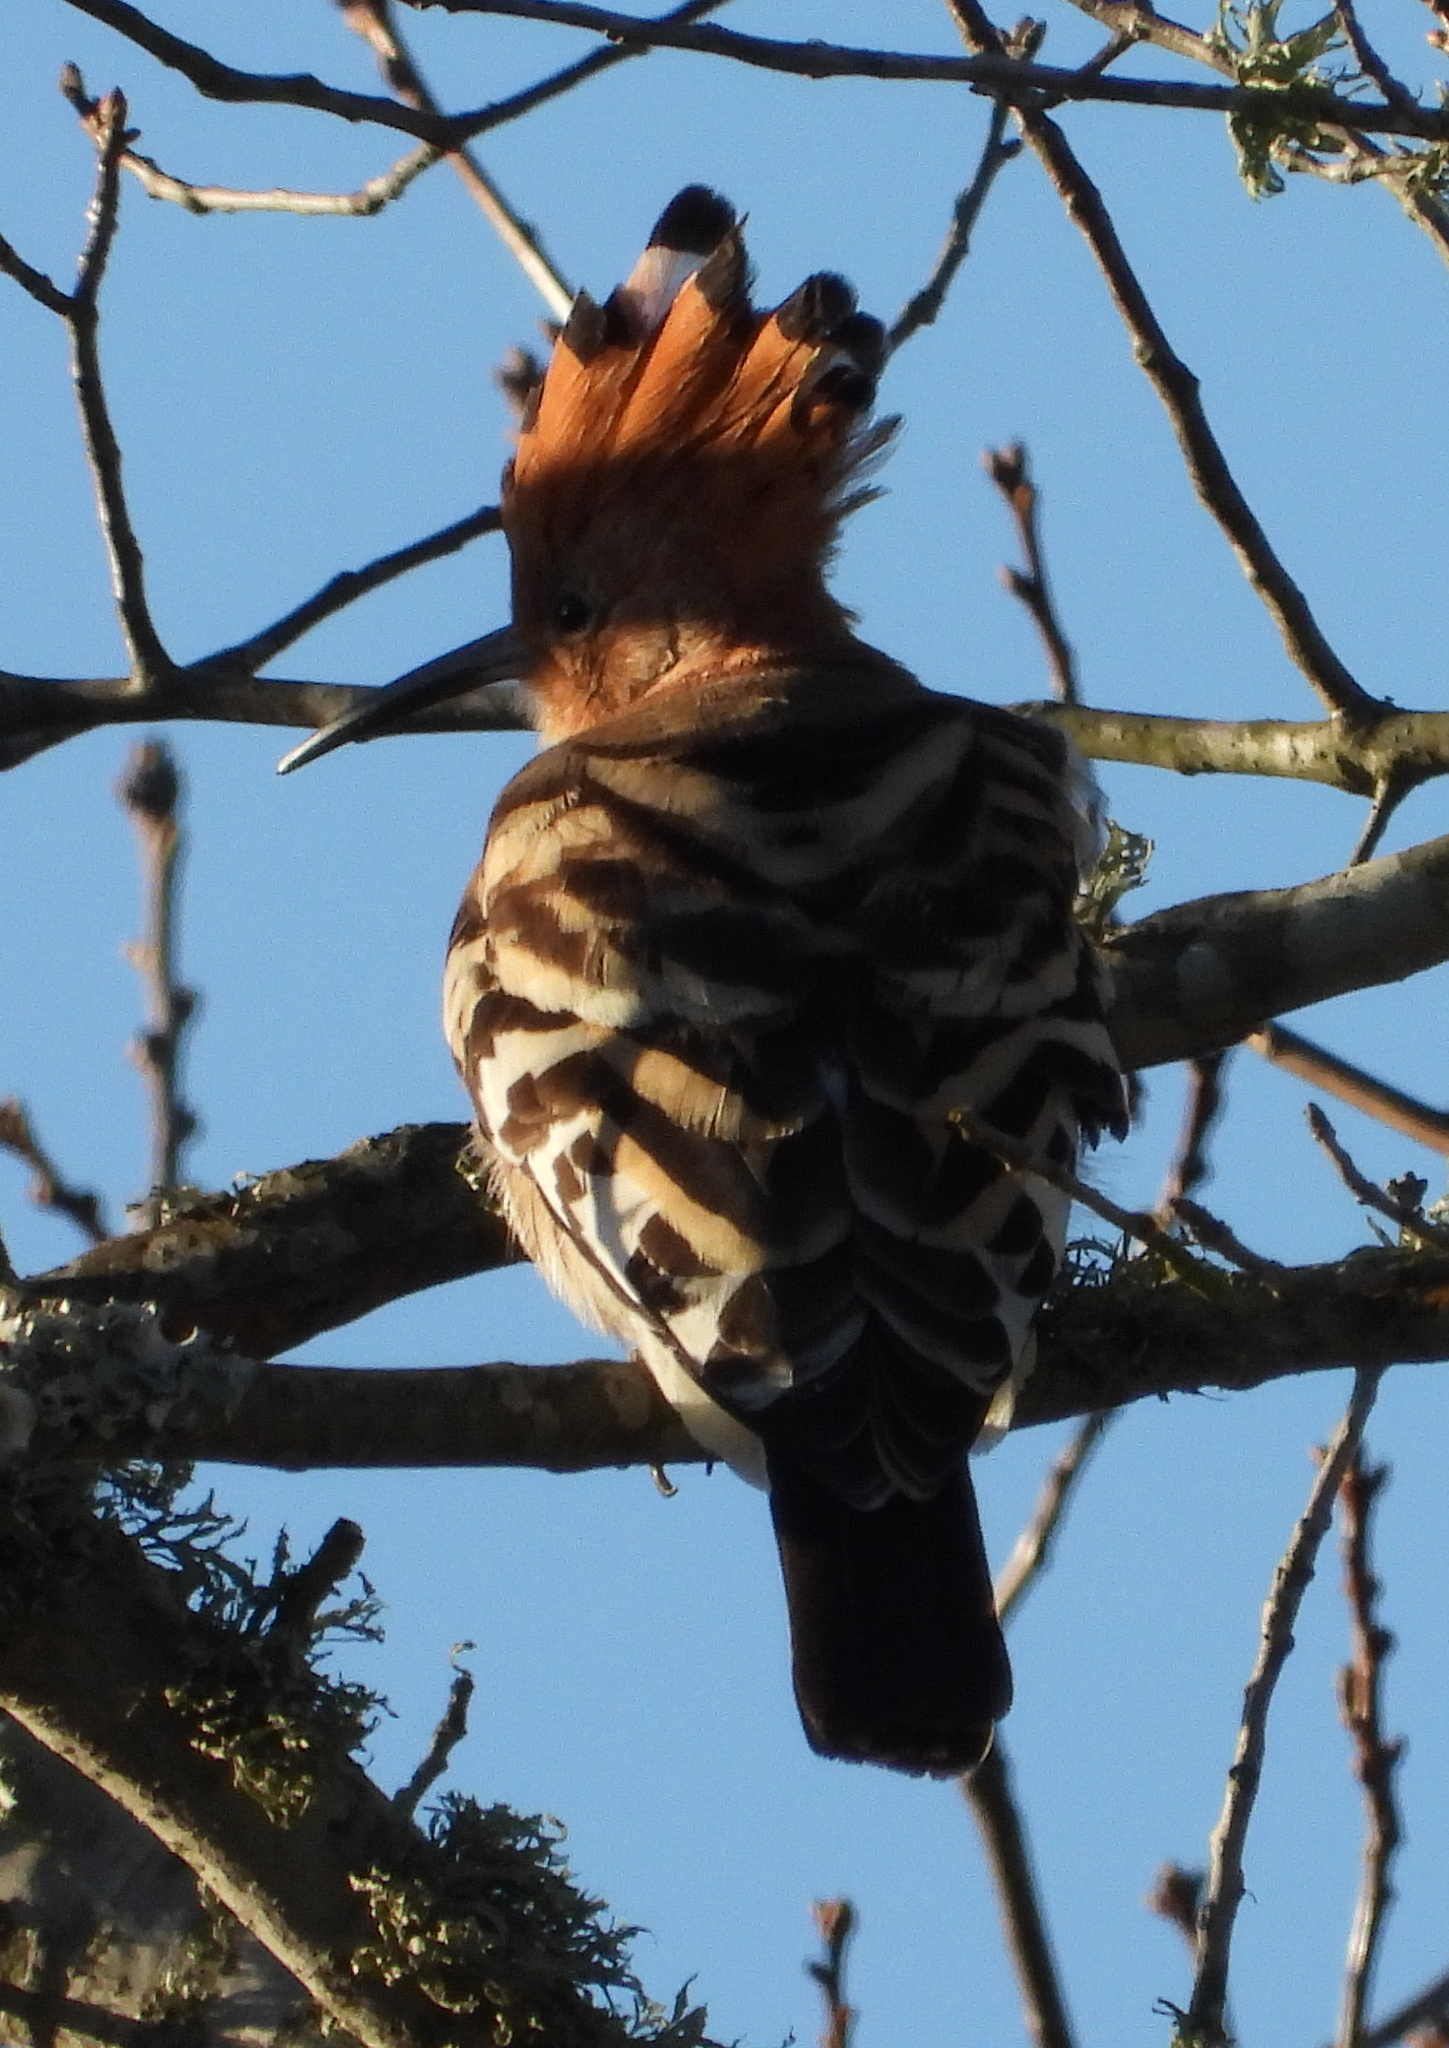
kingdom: Animalia
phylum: Chordata
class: Aves
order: Bucerotiformes
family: Upupidae
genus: Upupa
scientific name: Upupa africana
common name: African hoopoe
